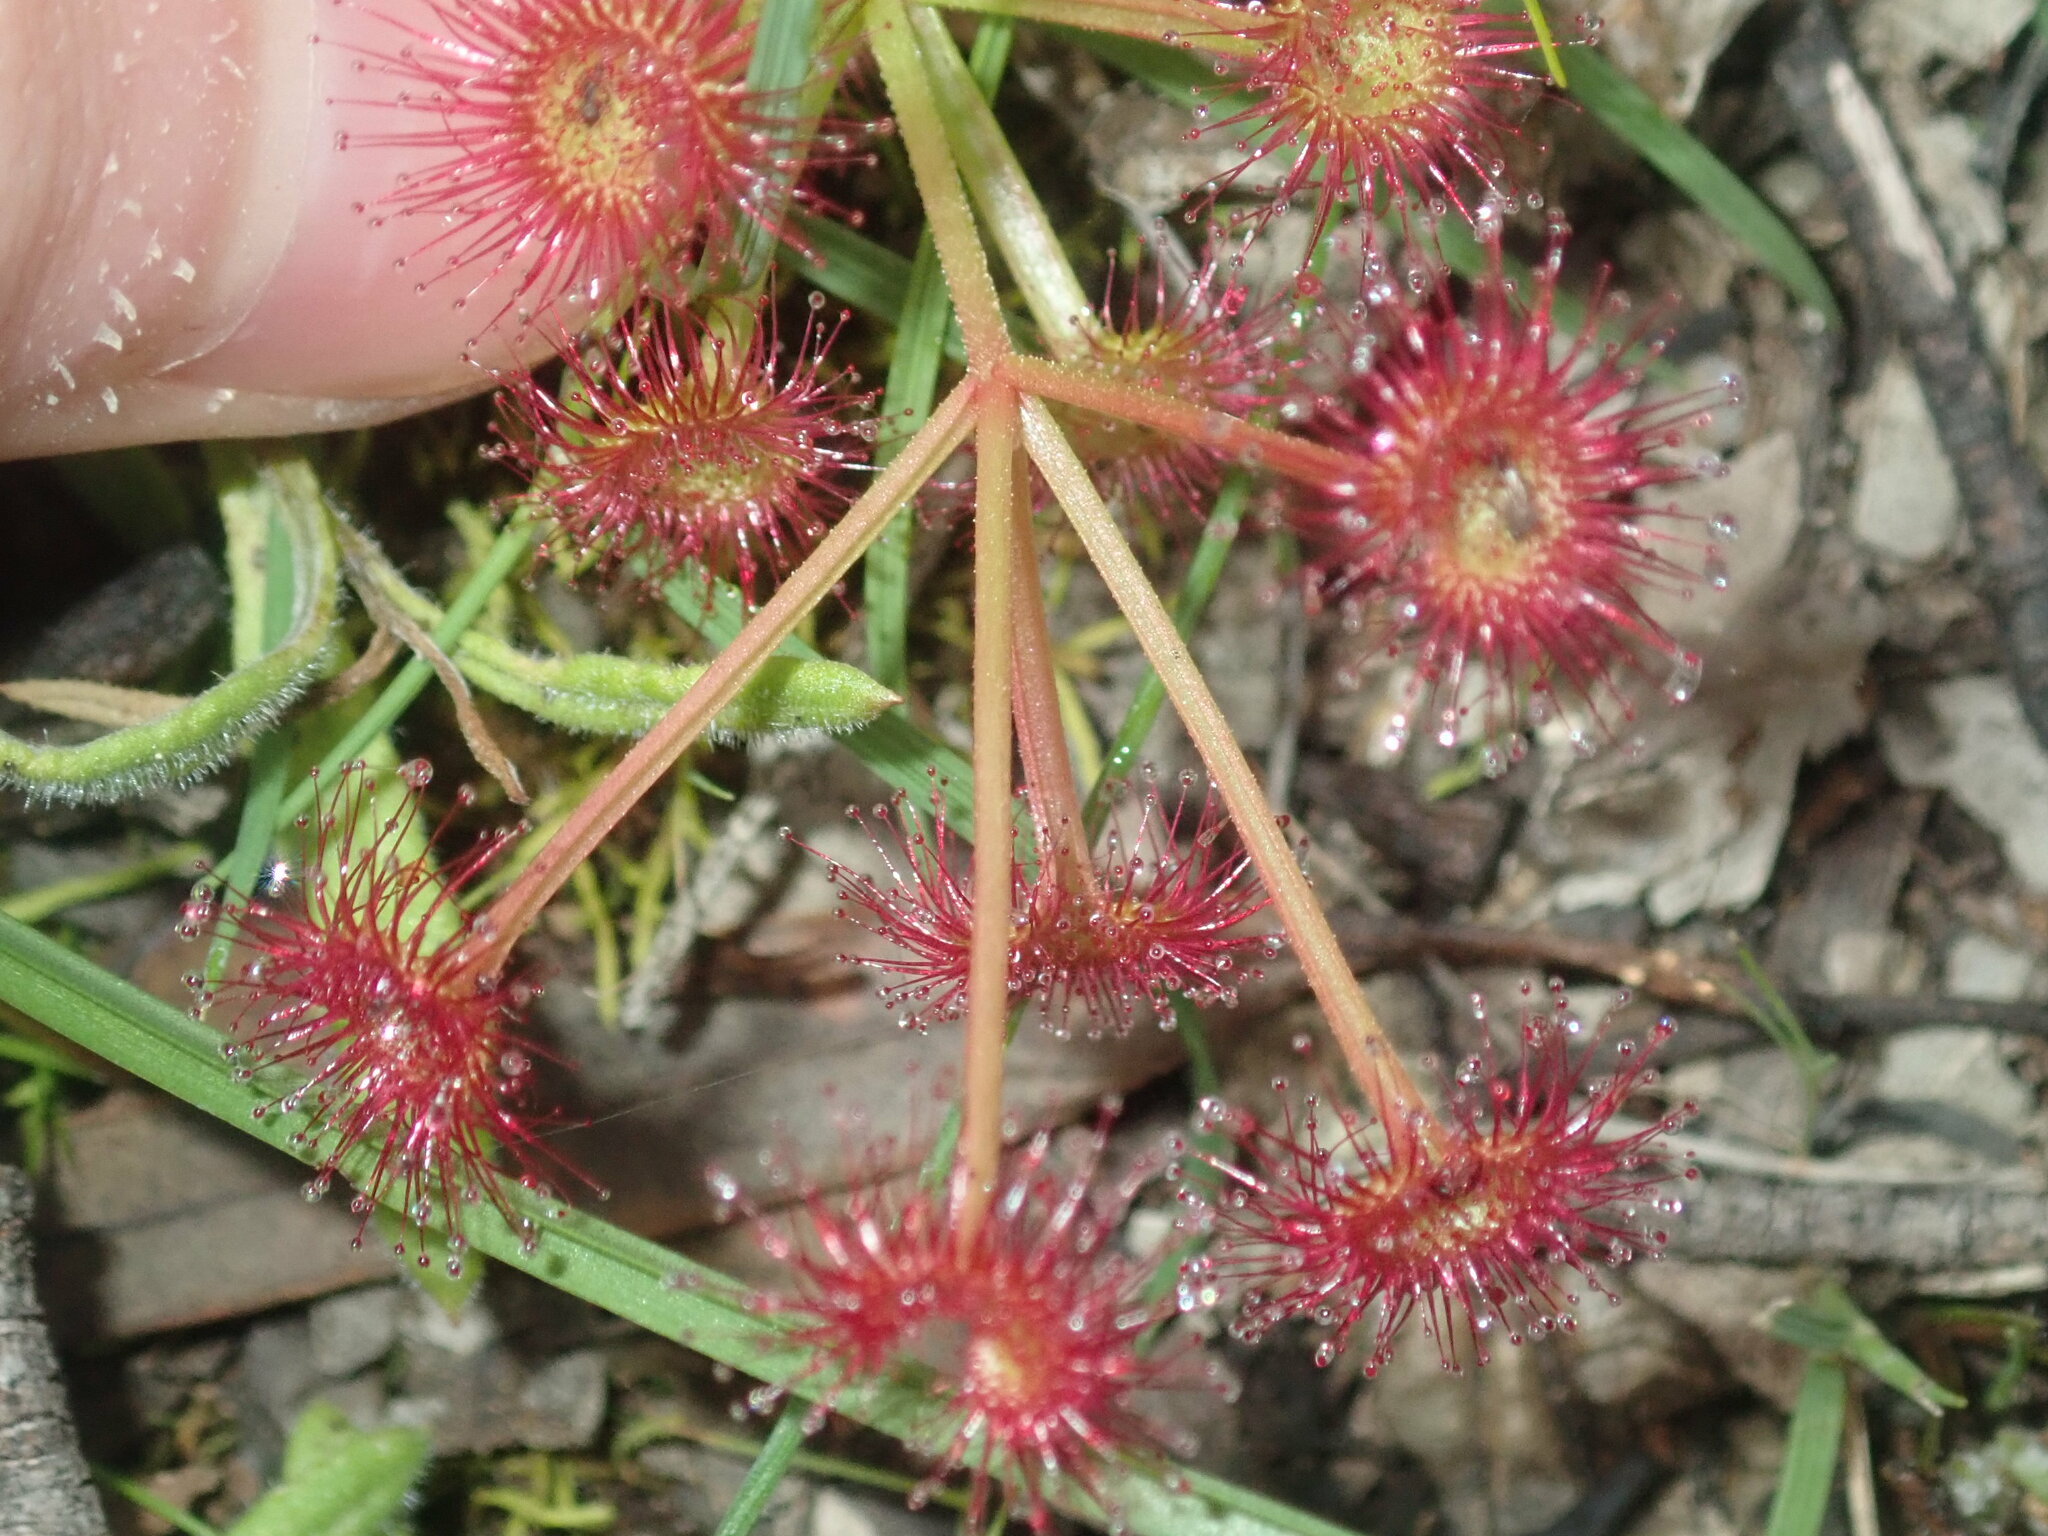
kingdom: Plantae
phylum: Tracheophyta
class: Magnoliopsida
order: Caryophyllales
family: Droseraceae
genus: Drosera
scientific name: Drosera stolonifera
